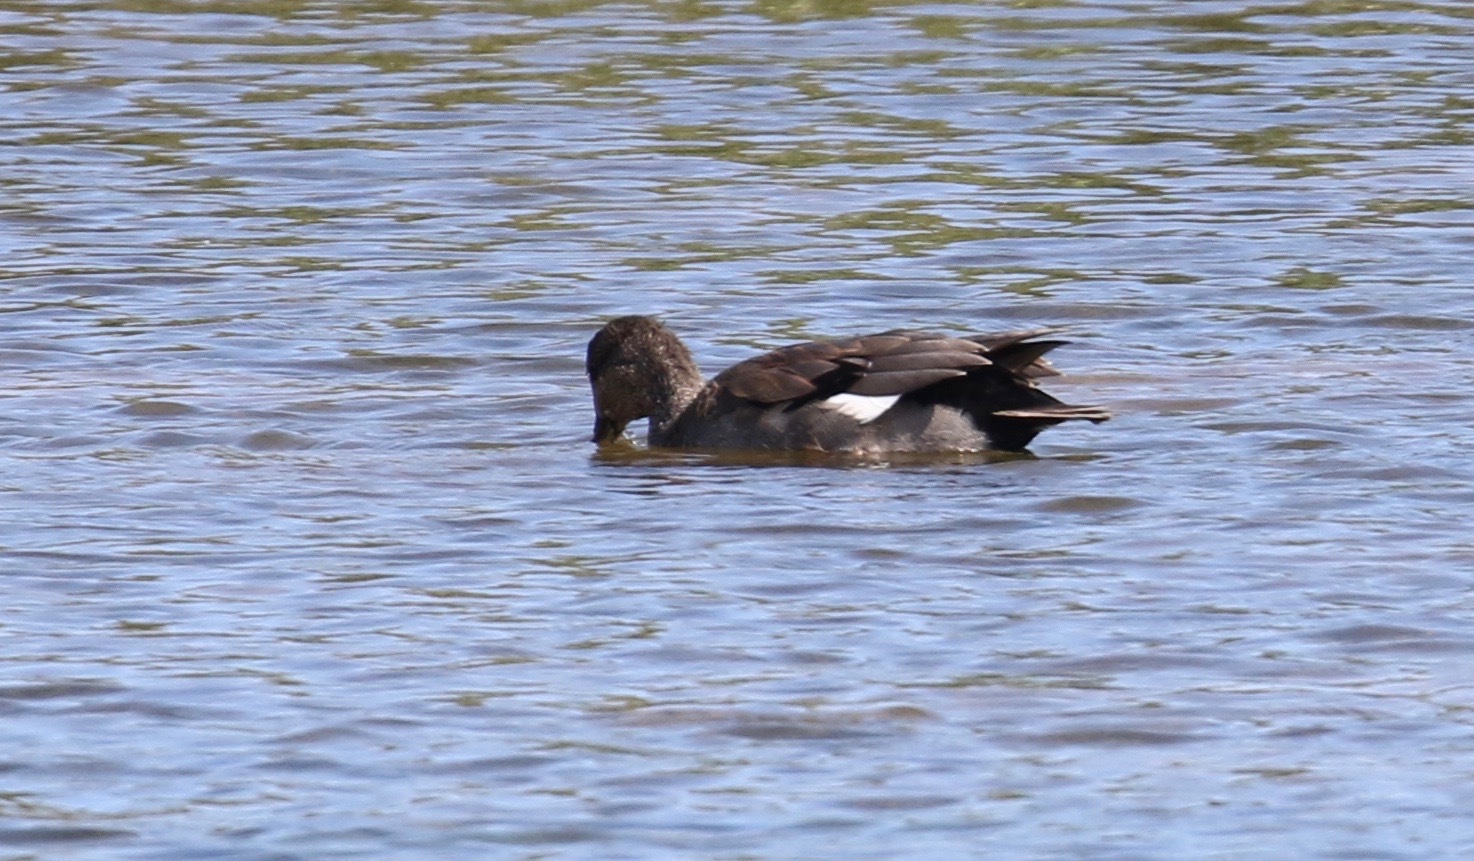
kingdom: Animalia
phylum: Chordata
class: Aves
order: Anseriformes
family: Anatidae
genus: Mareca
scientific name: Mareca strepera
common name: Gadwall
